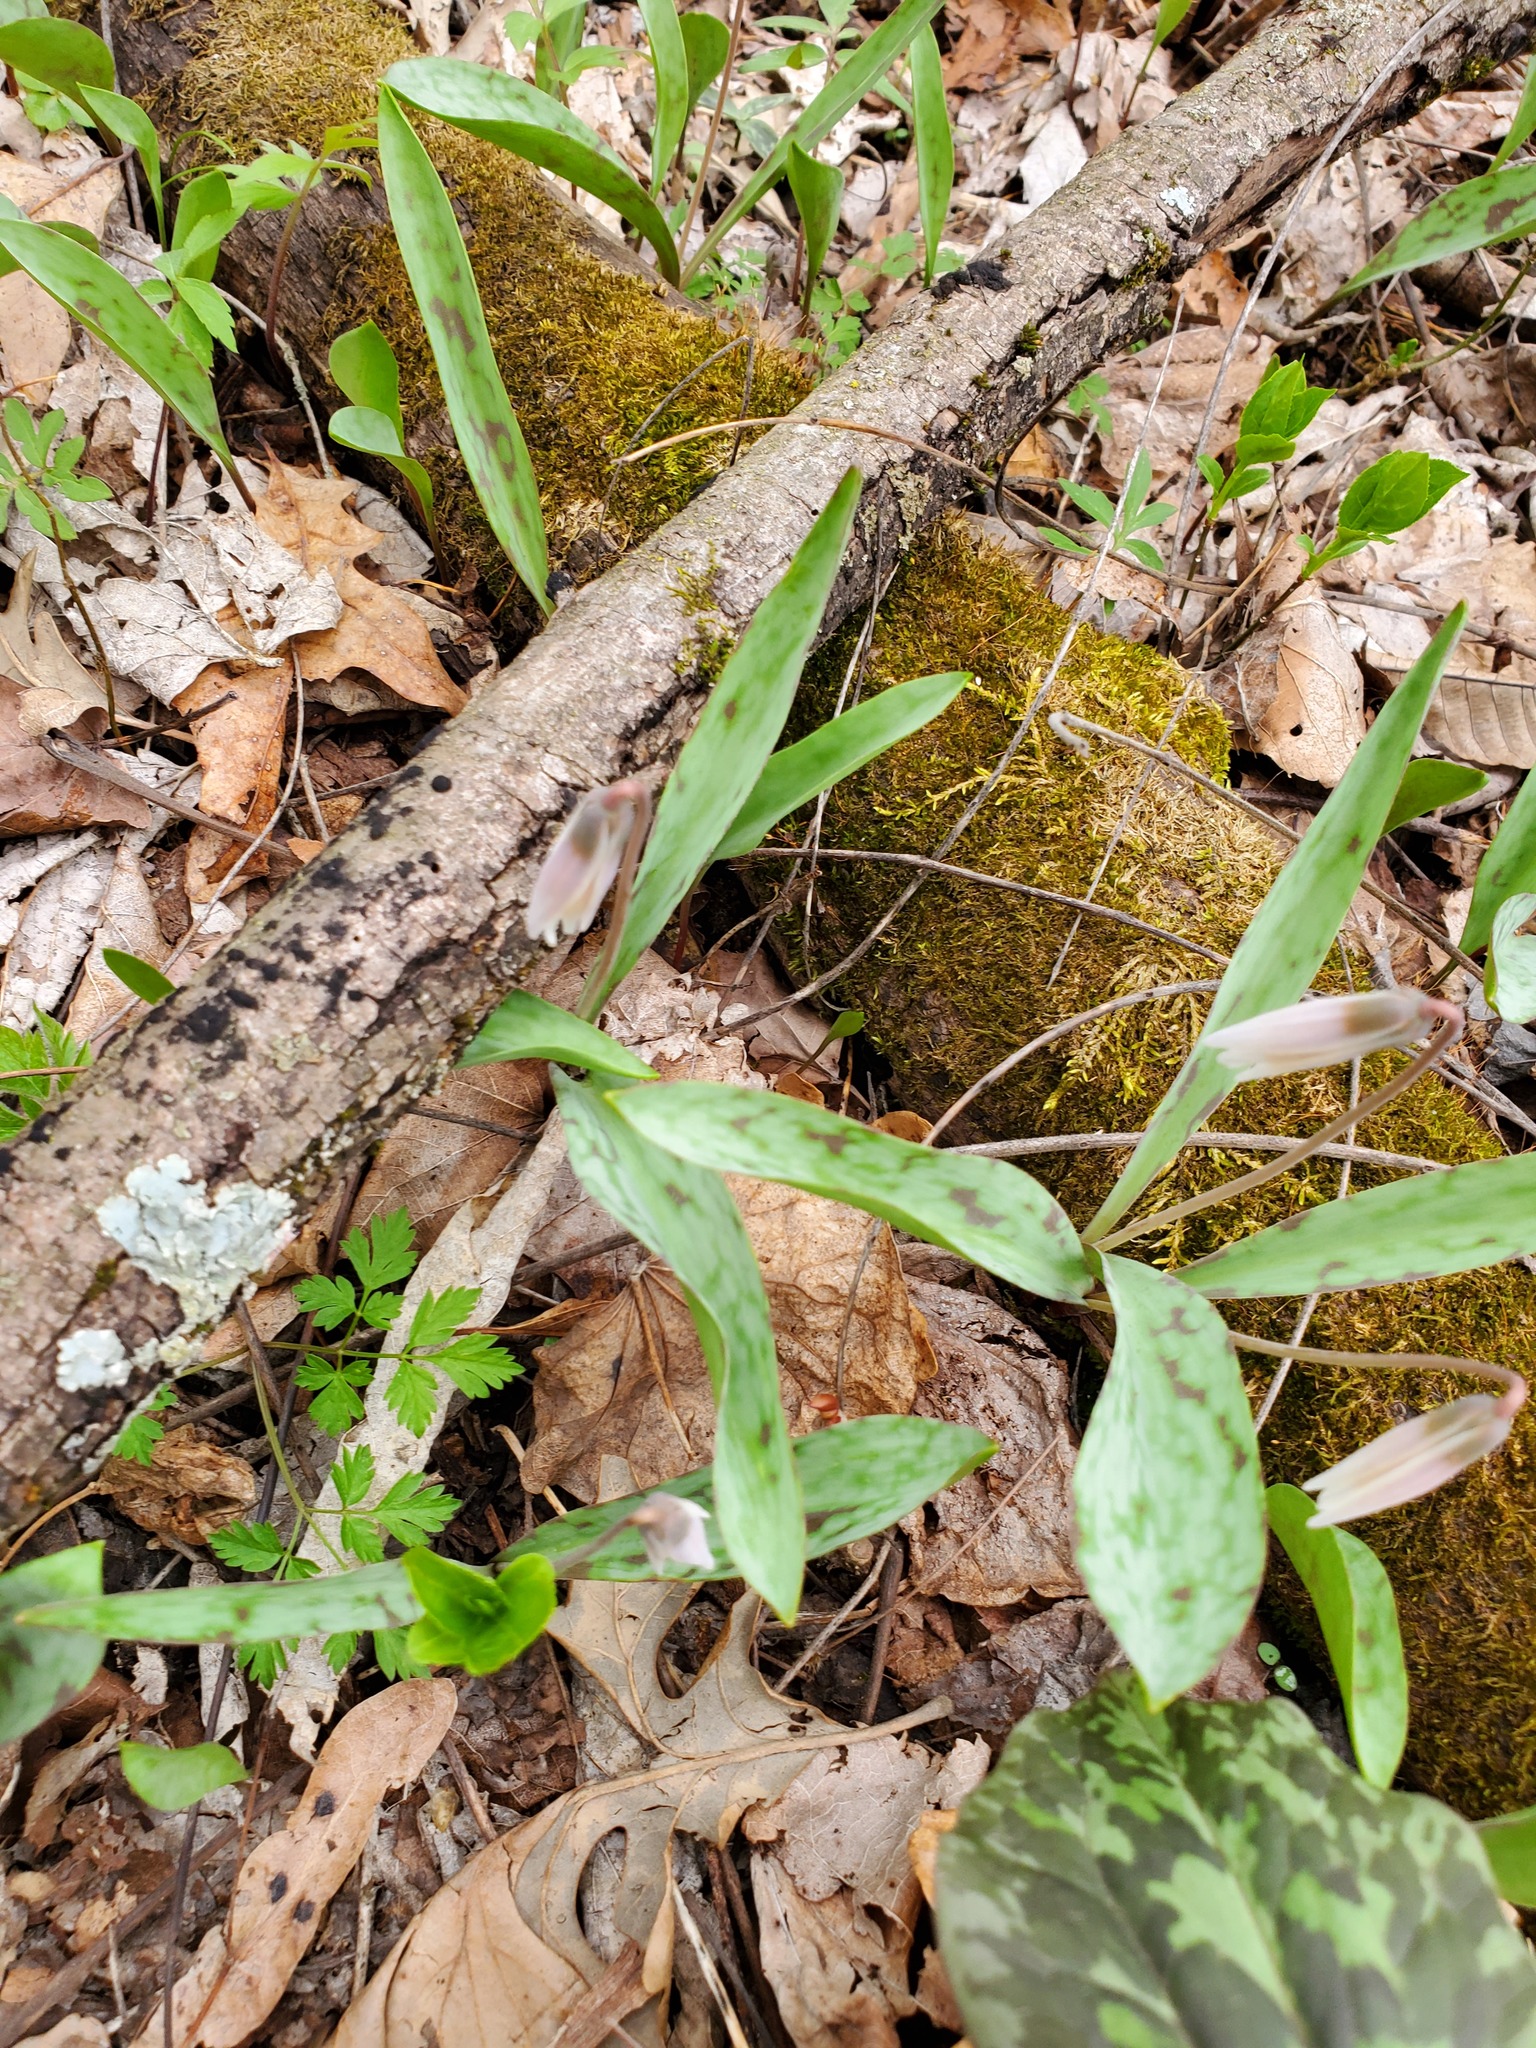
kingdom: Plantae
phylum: Tracheophyta
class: Liliopsida
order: Liliales
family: Liliaceae
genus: Erythronium
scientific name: Erythronium albidum
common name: White trout-lily
